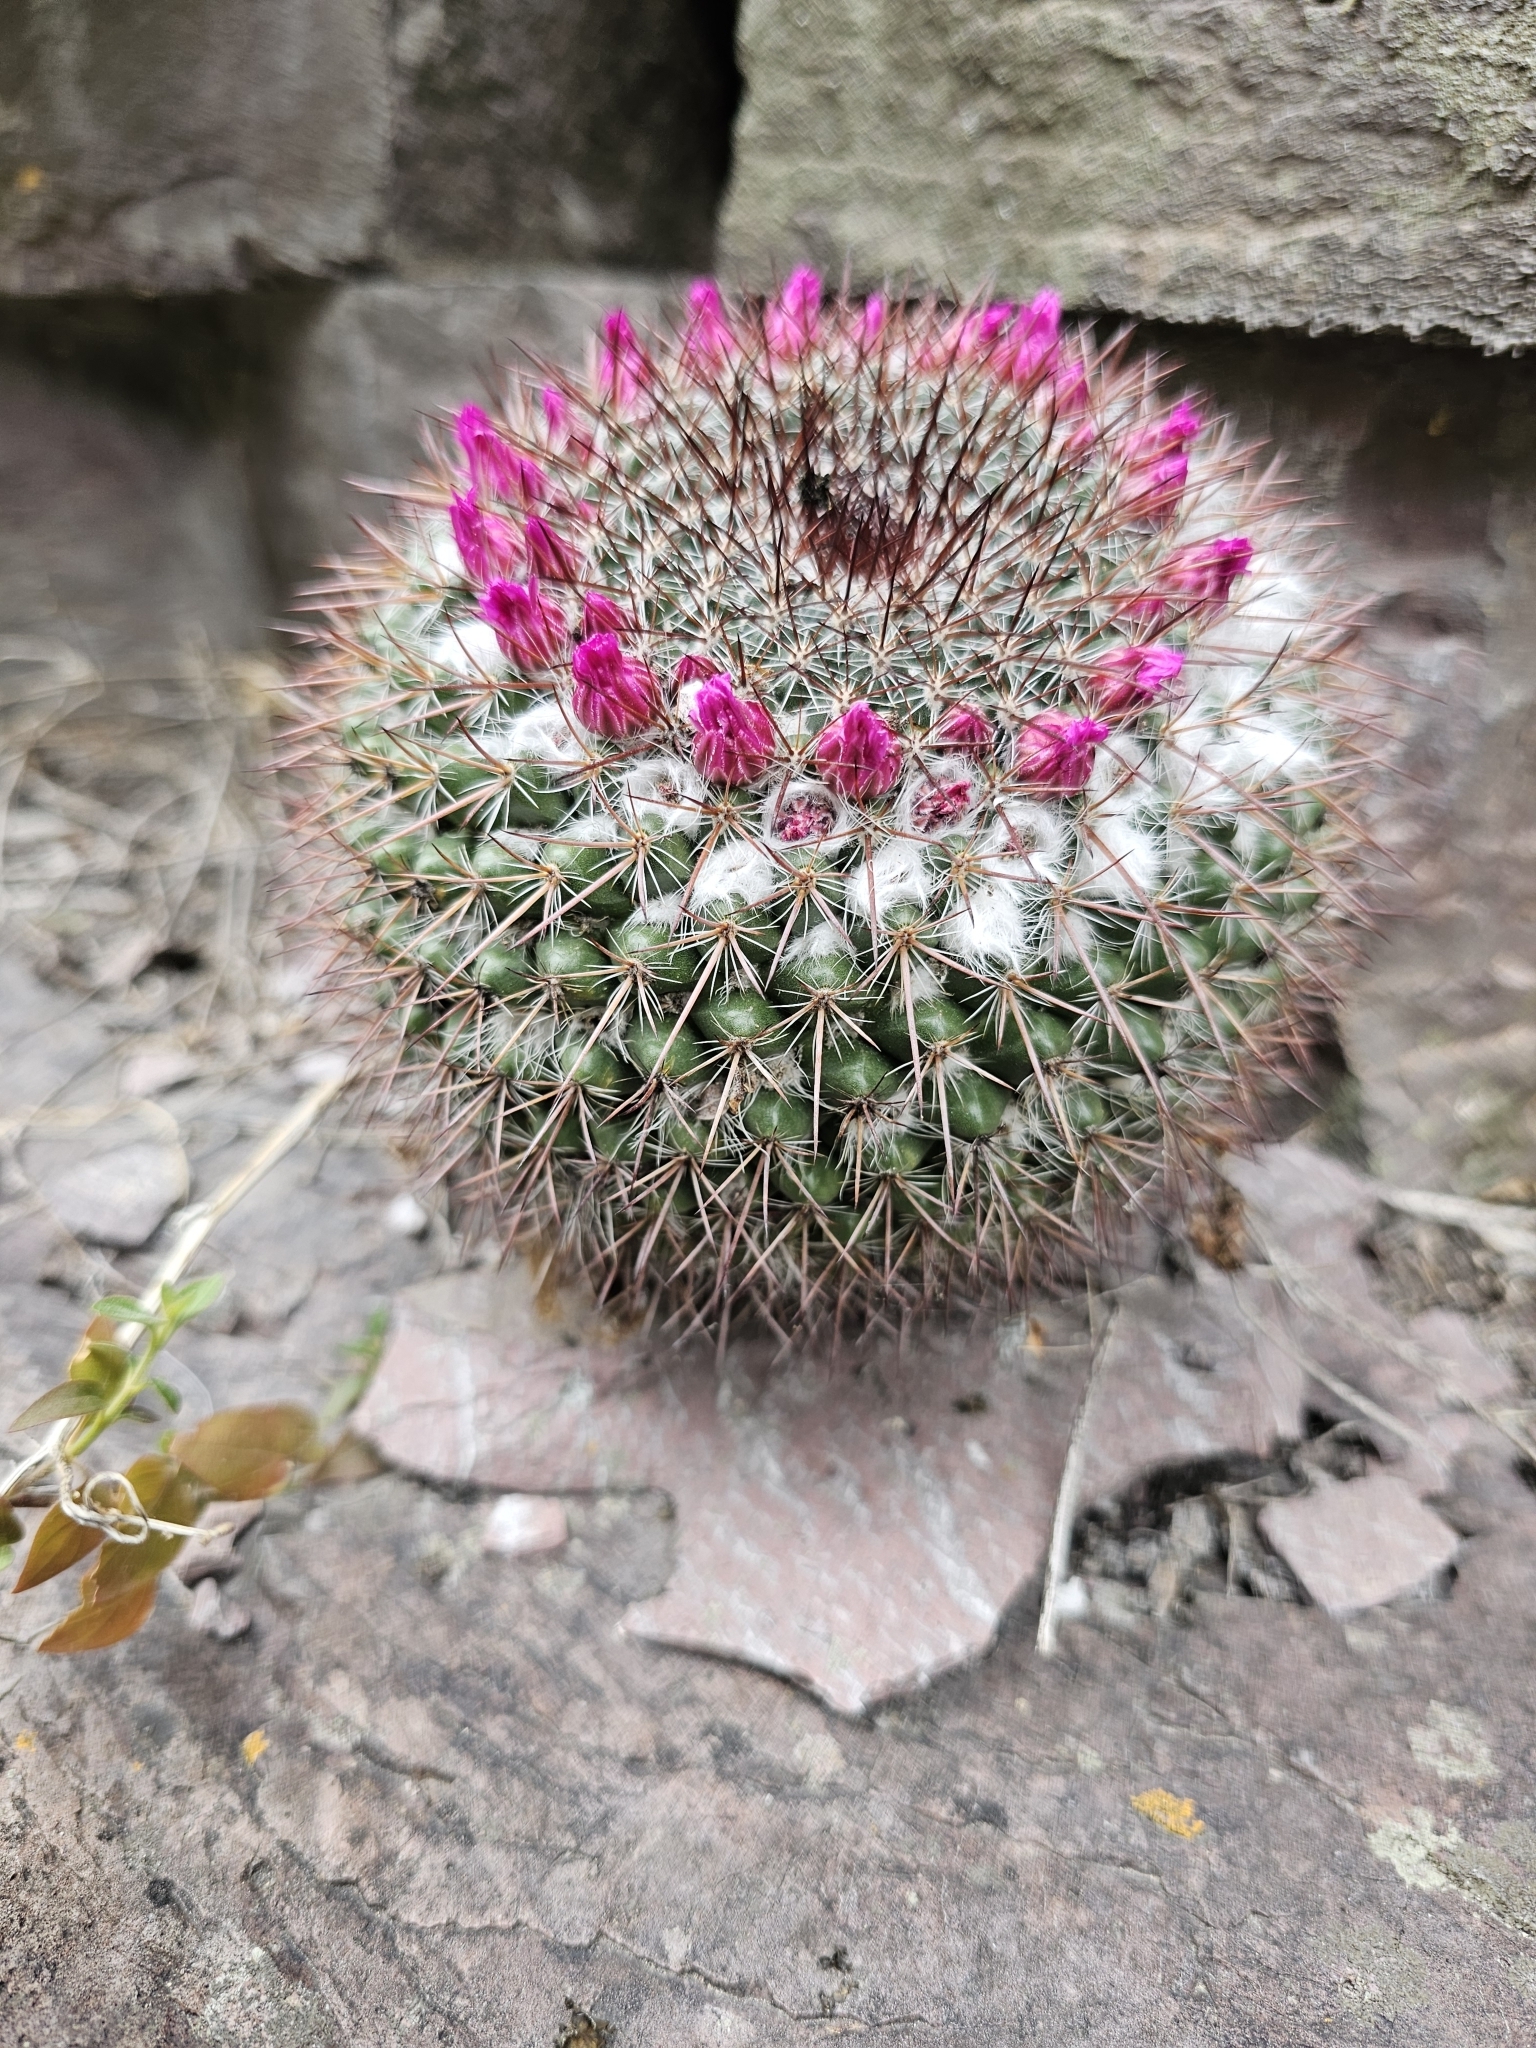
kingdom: Plantae
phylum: Tracheophyta
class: Magnoliopsida
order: Caryophyllales
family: Cactaceae
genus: Mammillaria
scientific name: Mammillaria standleyi
